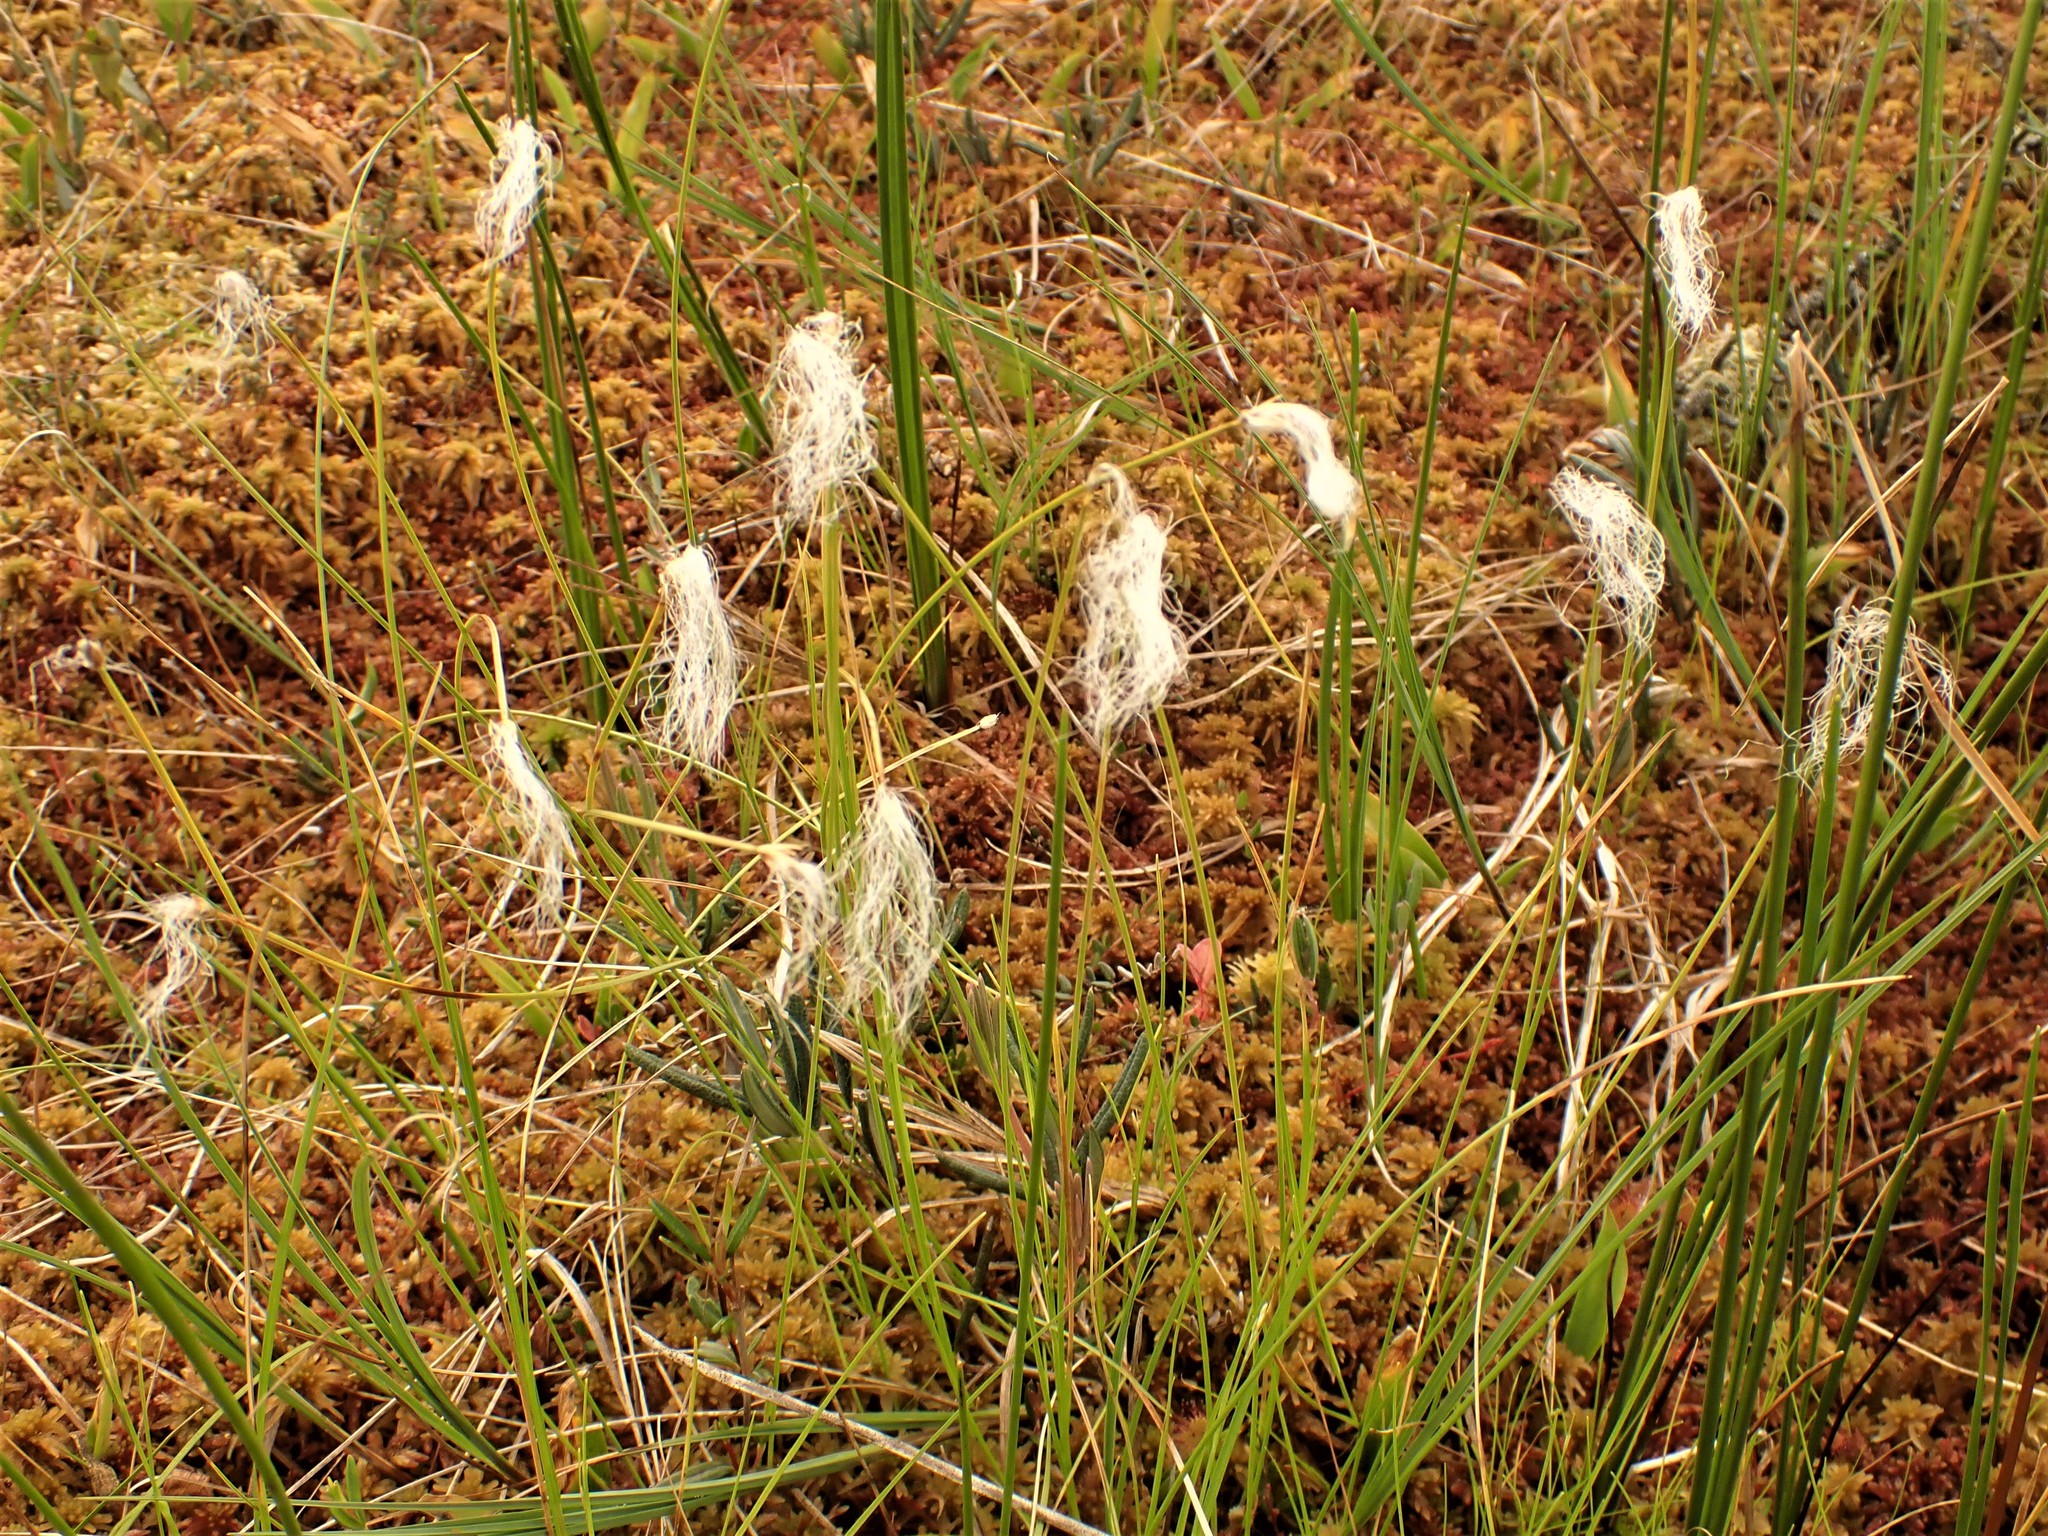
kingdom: Plantae
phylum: Tracheophyta
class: Liliopsida
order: Poales
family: Cyperaceae
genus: Trichophorum
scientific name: Trichophorum alpinum
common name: Alpine bulrush
